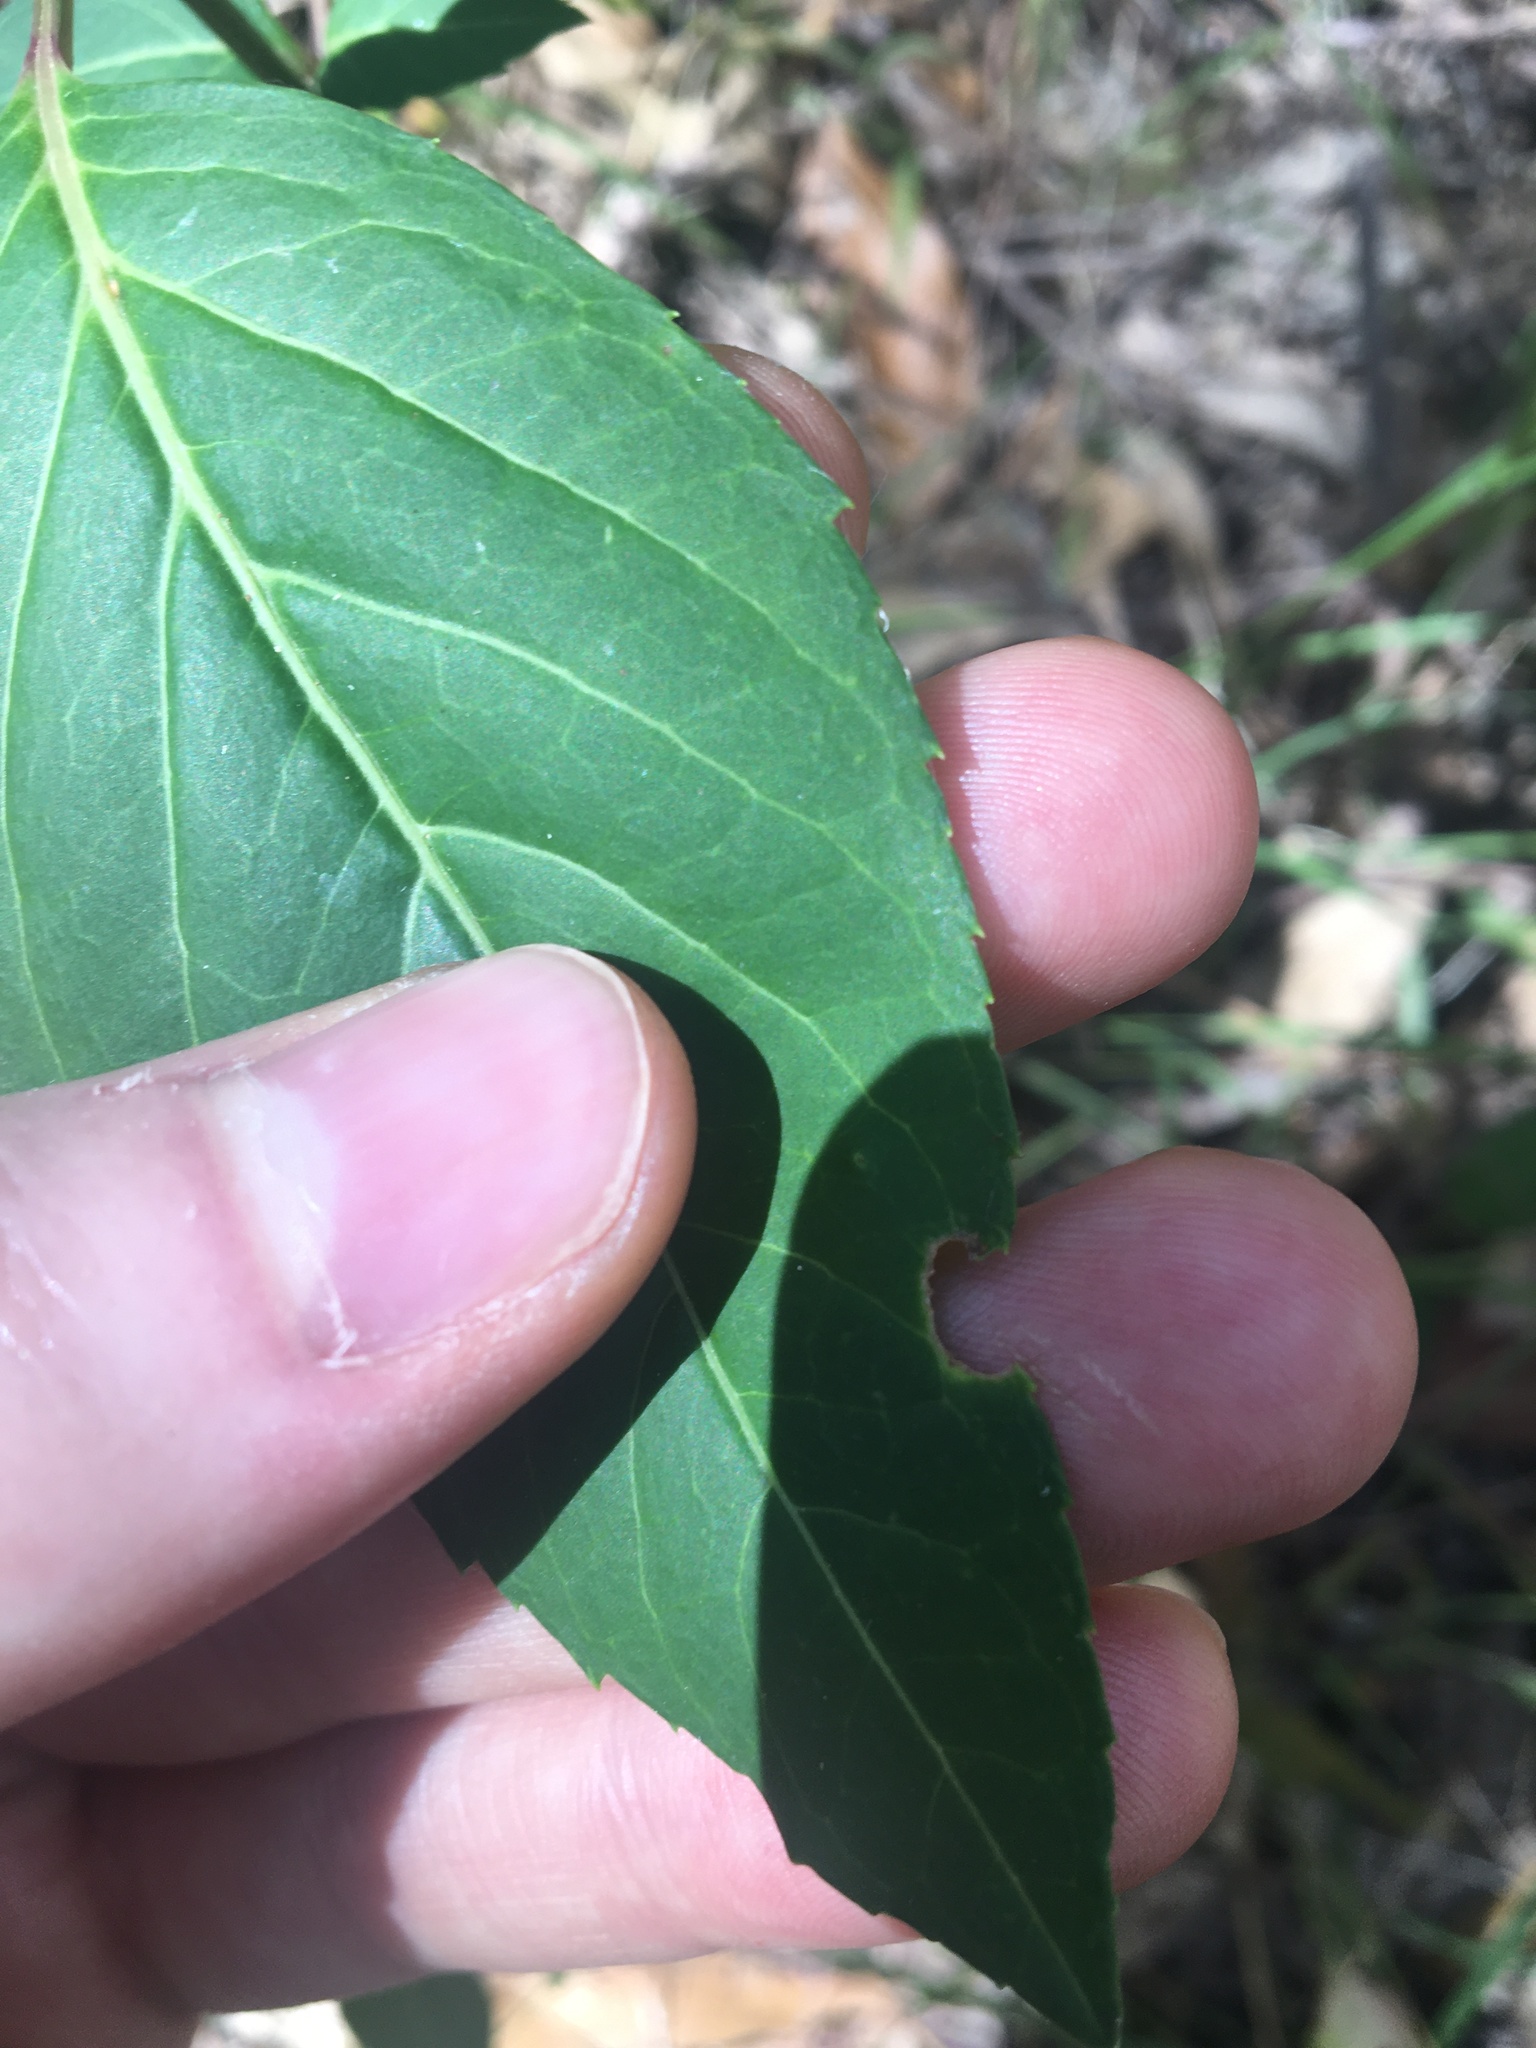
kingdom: Plantae
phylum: Tracheophyta
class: Magnoliopsida
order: Apiales
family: Araliaceae
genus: Polyscias
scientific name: Polyscias sambucifolia
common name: Elderberry-ash
